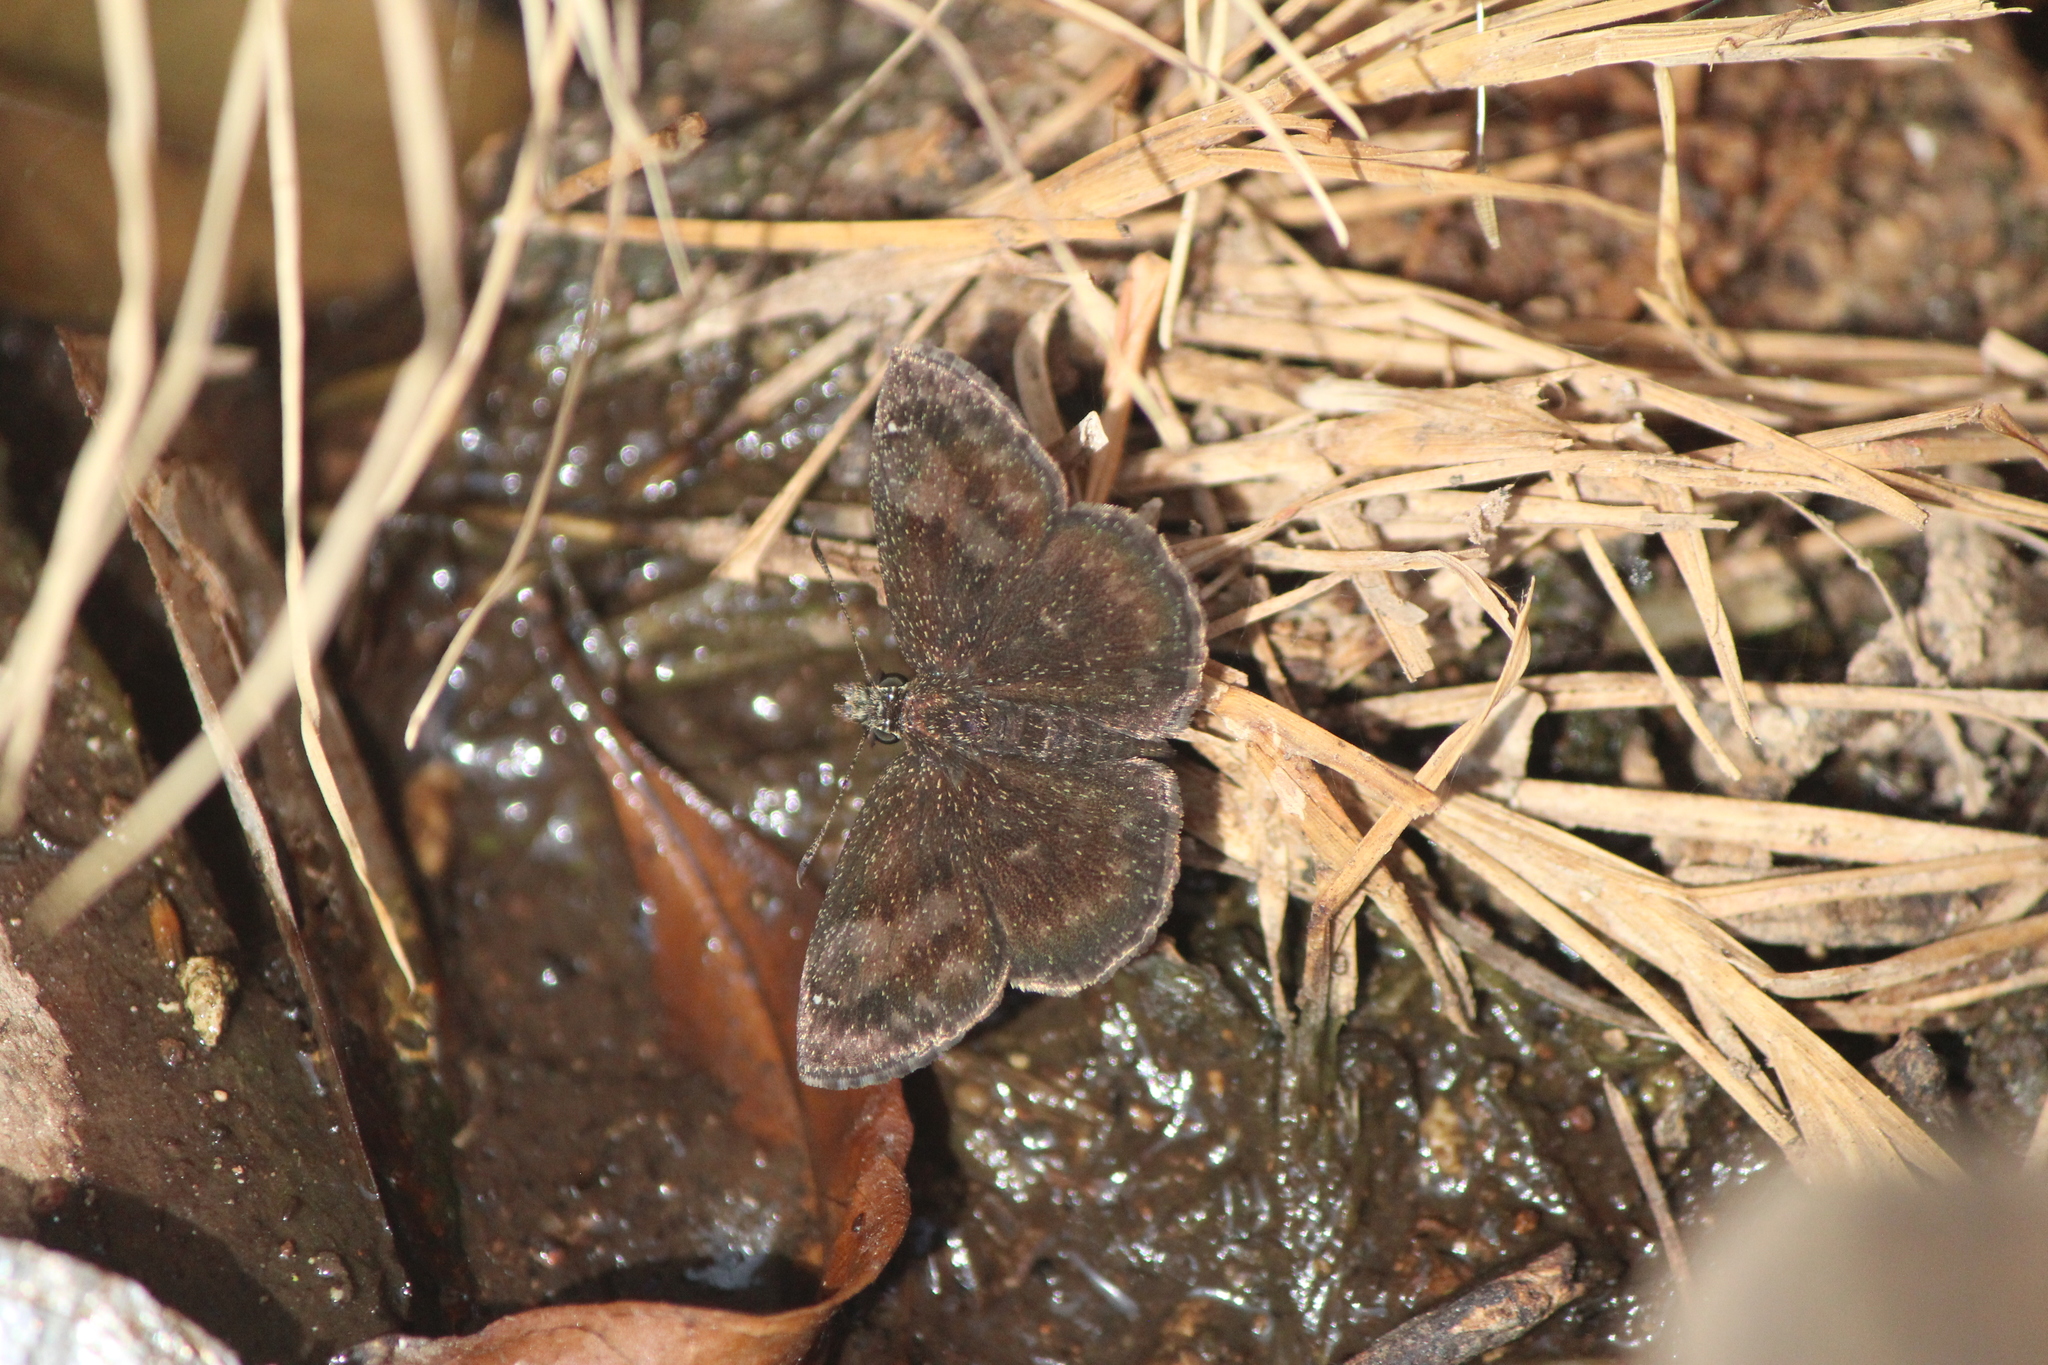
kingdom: Animalia
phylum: Arthropoda
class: Insecta
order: Lepidoptera
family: Hesperiidae
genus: Staphylus
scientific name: Staphylus vincula
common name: Mountain sootywing
